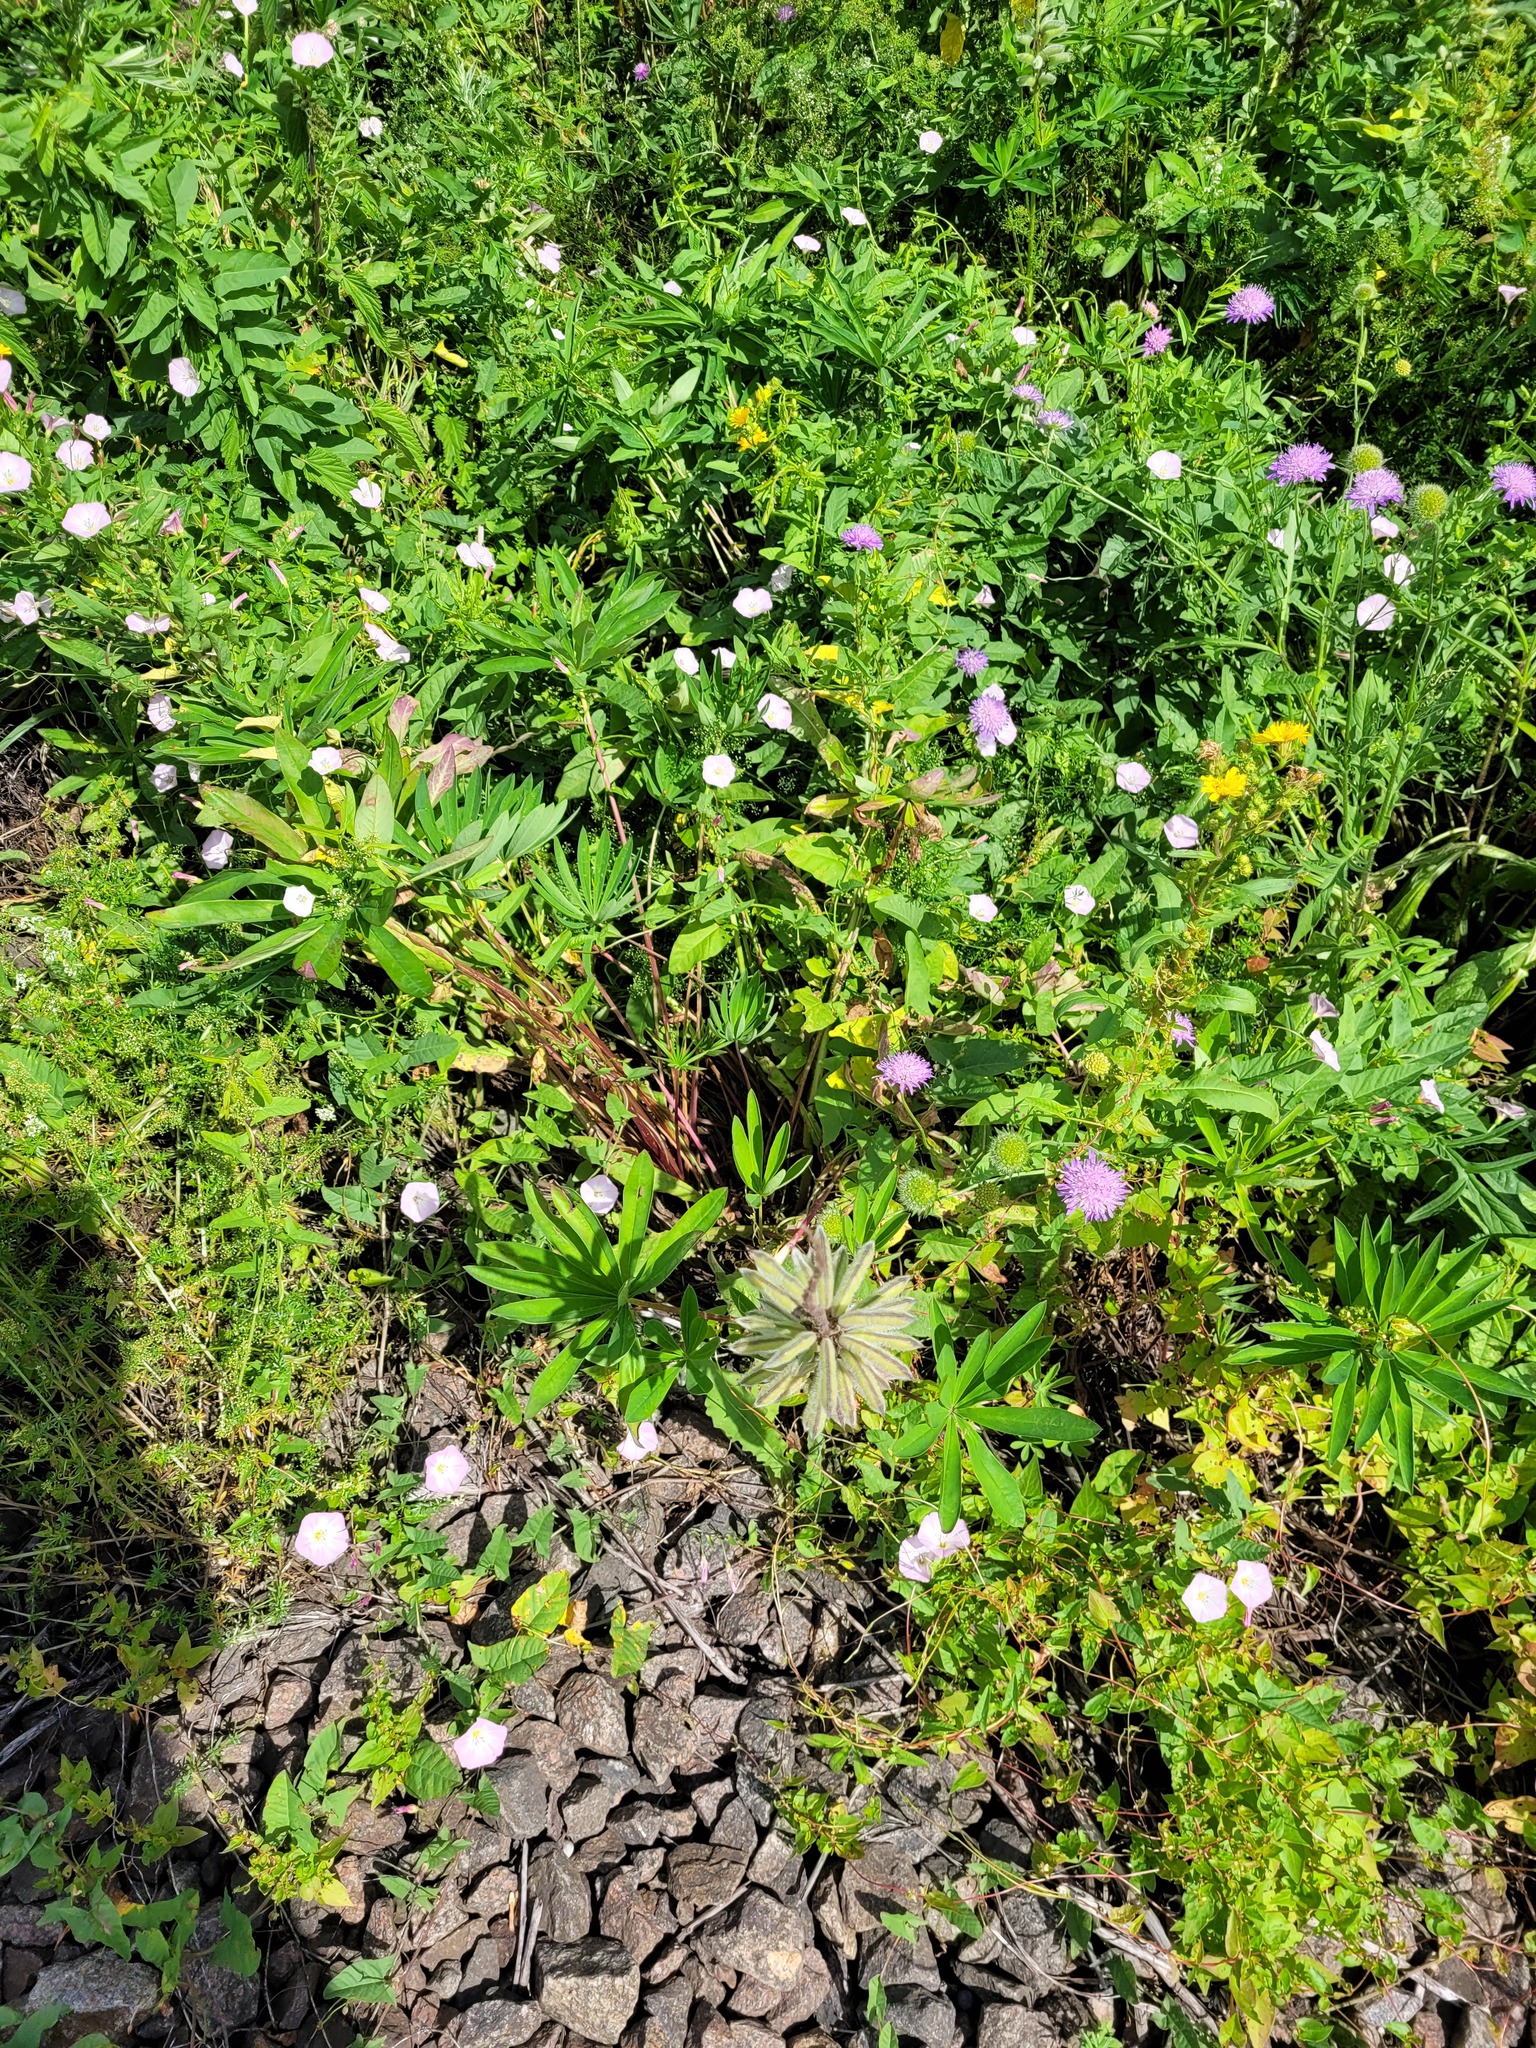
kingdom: Plantae
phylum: Tracheophyta
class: Magnoliopsida
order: Fabales
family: Fabaceae
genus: Lupinus
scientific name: Lupinus polyphyllus
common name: Garden lupin
